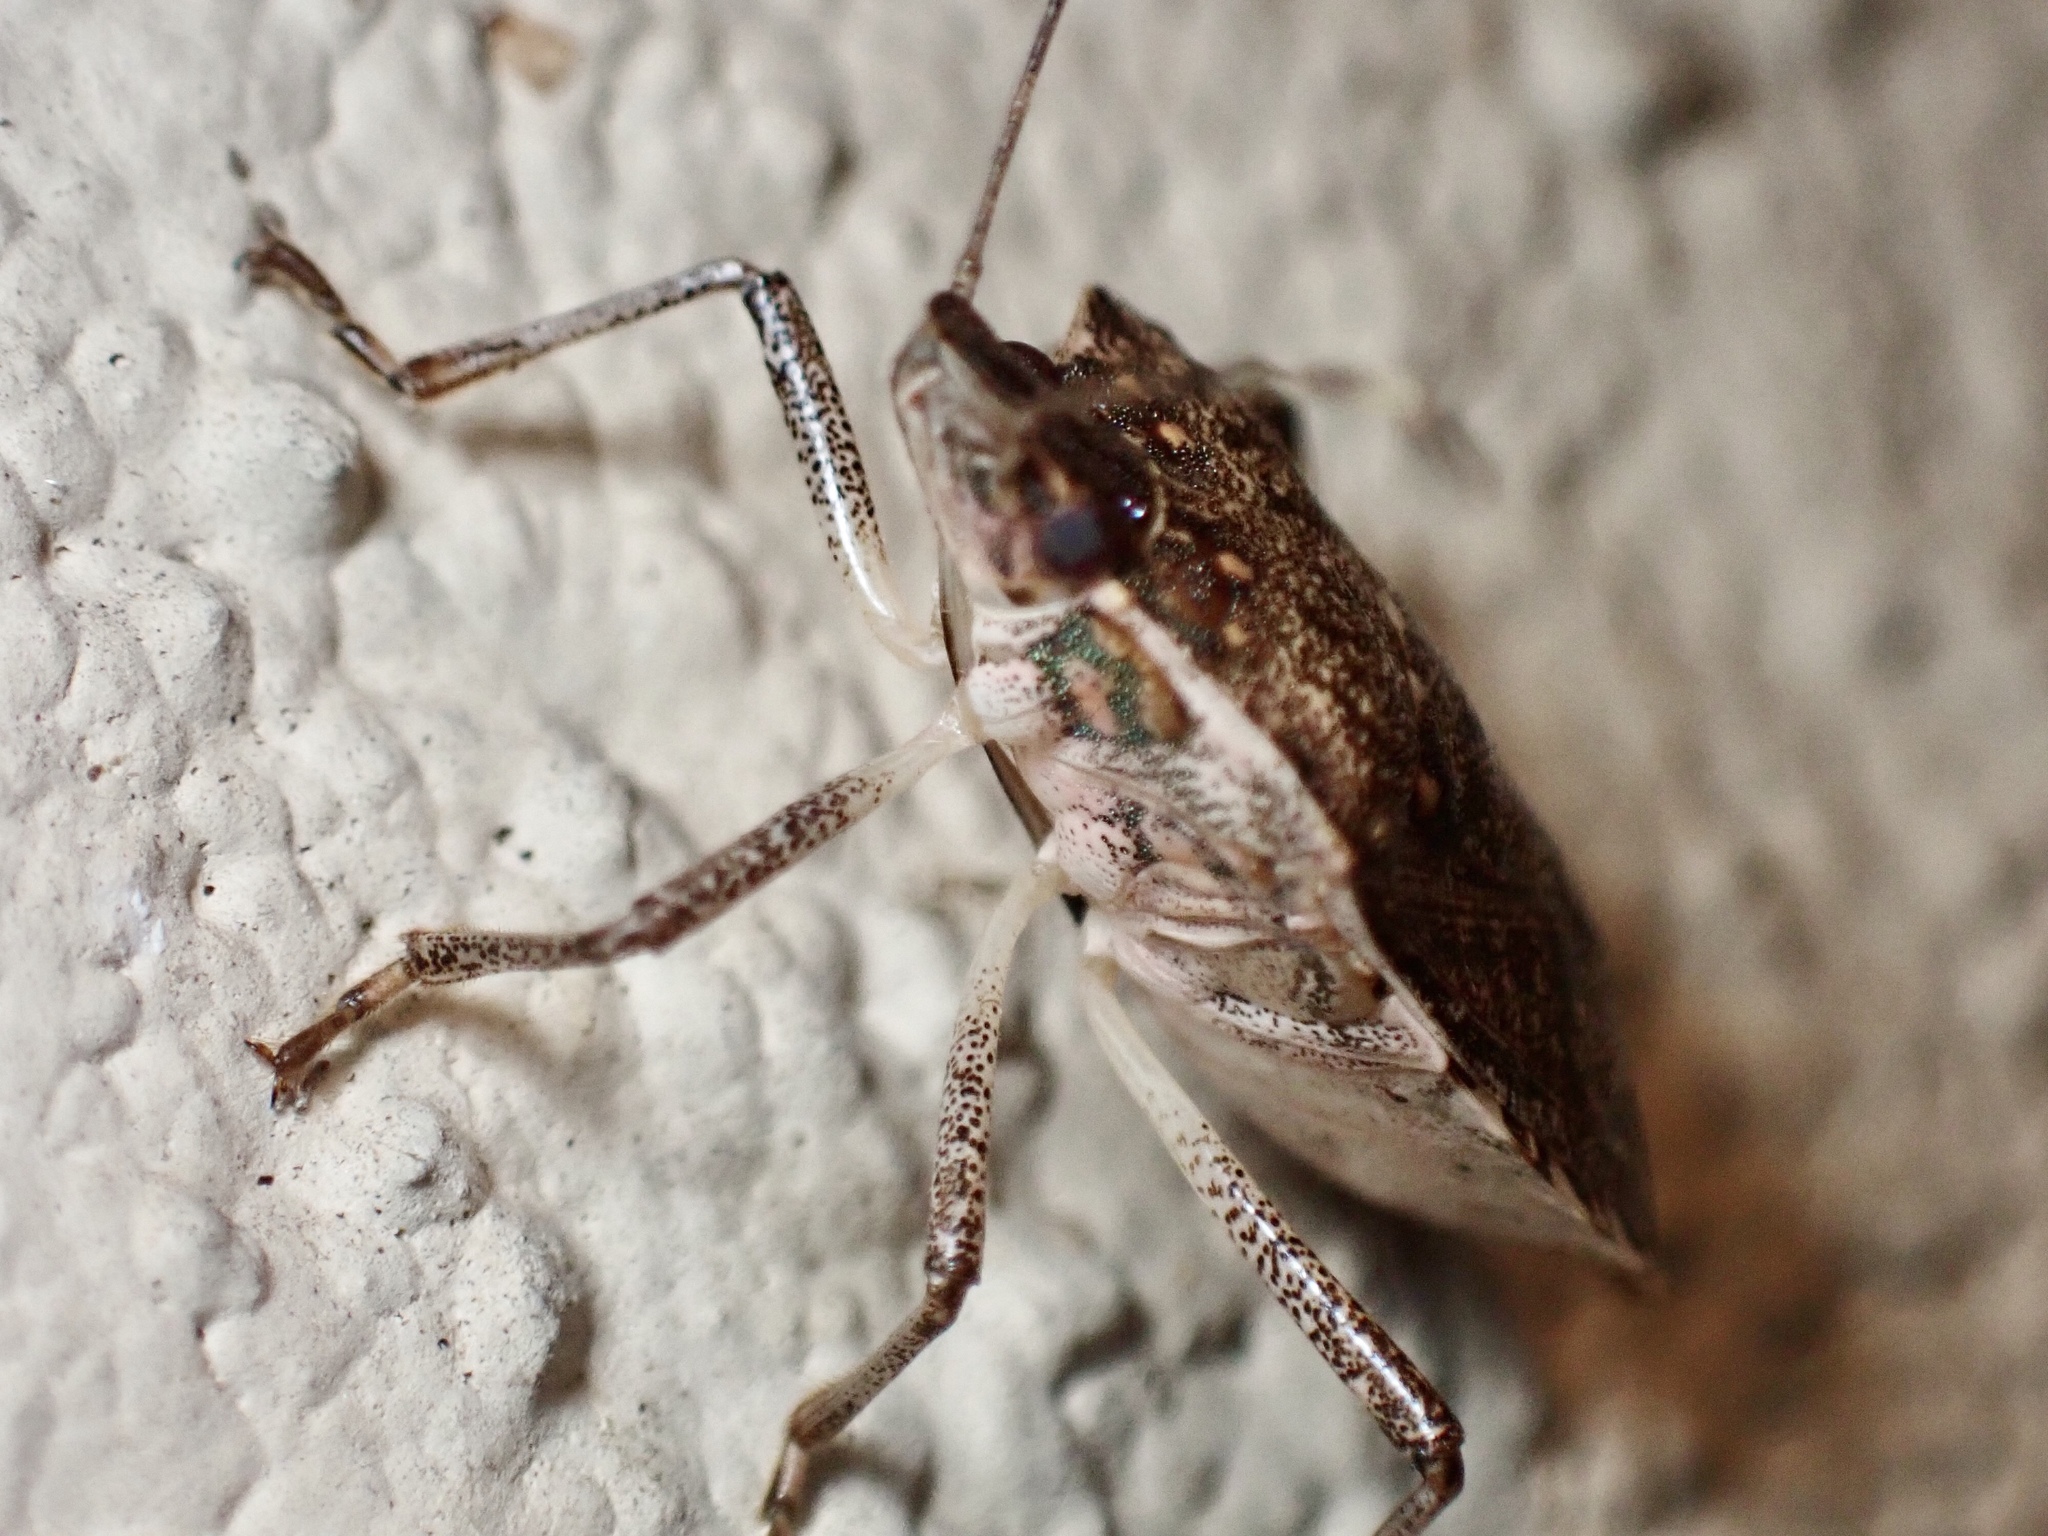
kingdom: Animalia
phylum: Arthropoda
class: Insecta
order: Hemiptera
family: Pentatomidae
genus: Halyomorpha
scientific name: Halyomorpha halys
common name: Brown marmorated stink bug
